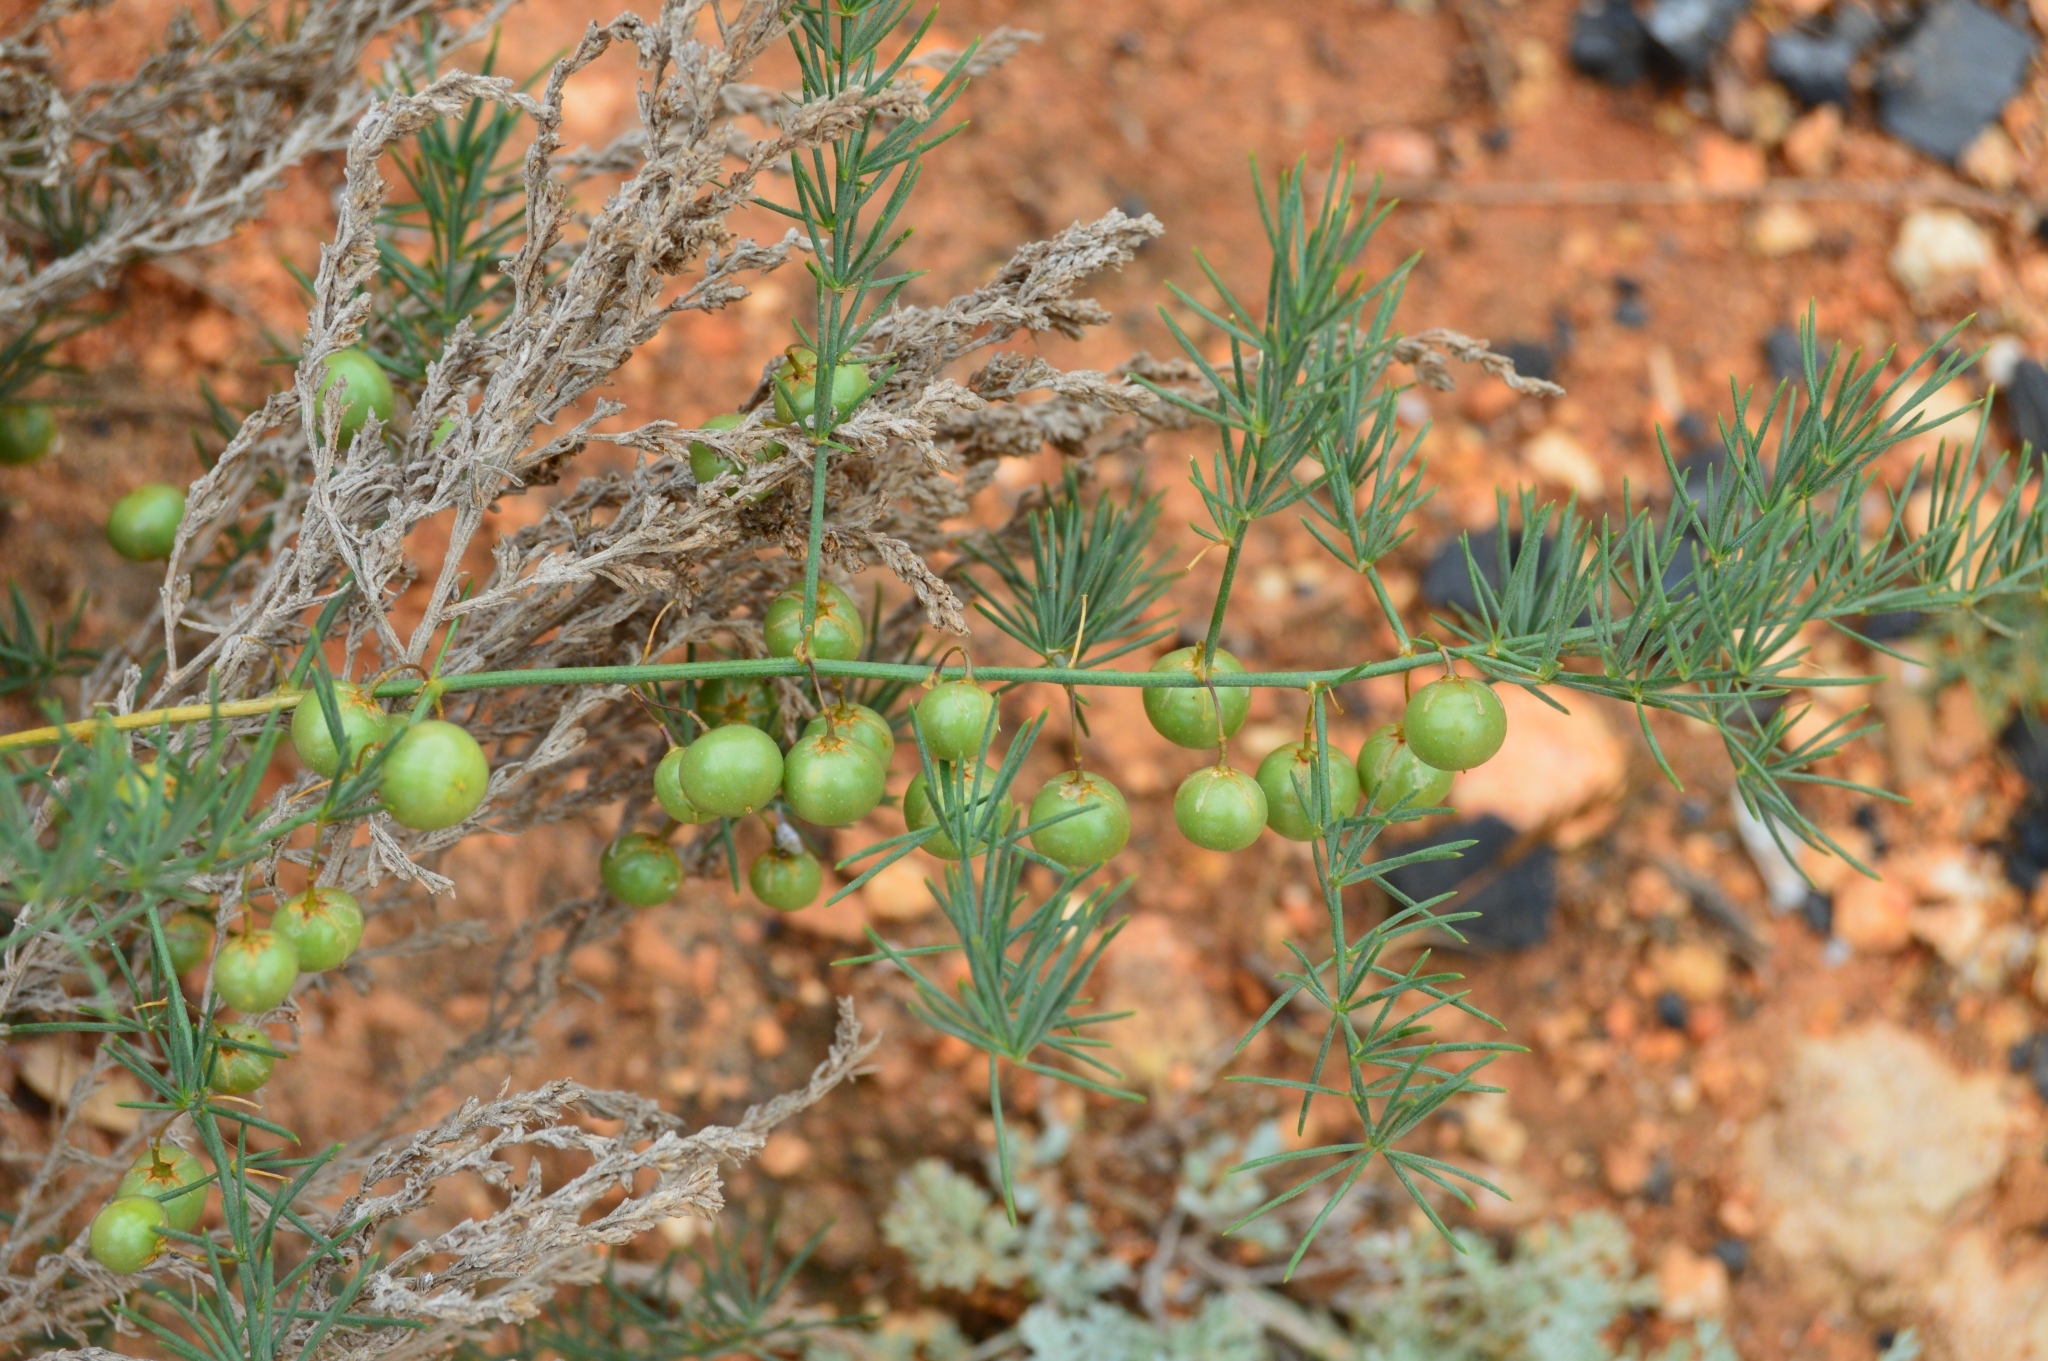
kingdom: Plantae
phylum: Tracheophyta
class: Liliopsida
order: Asparagales
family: Asparagaceae
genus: Asparagus
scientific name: Asparagus officinalis
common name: Garden asparagus
